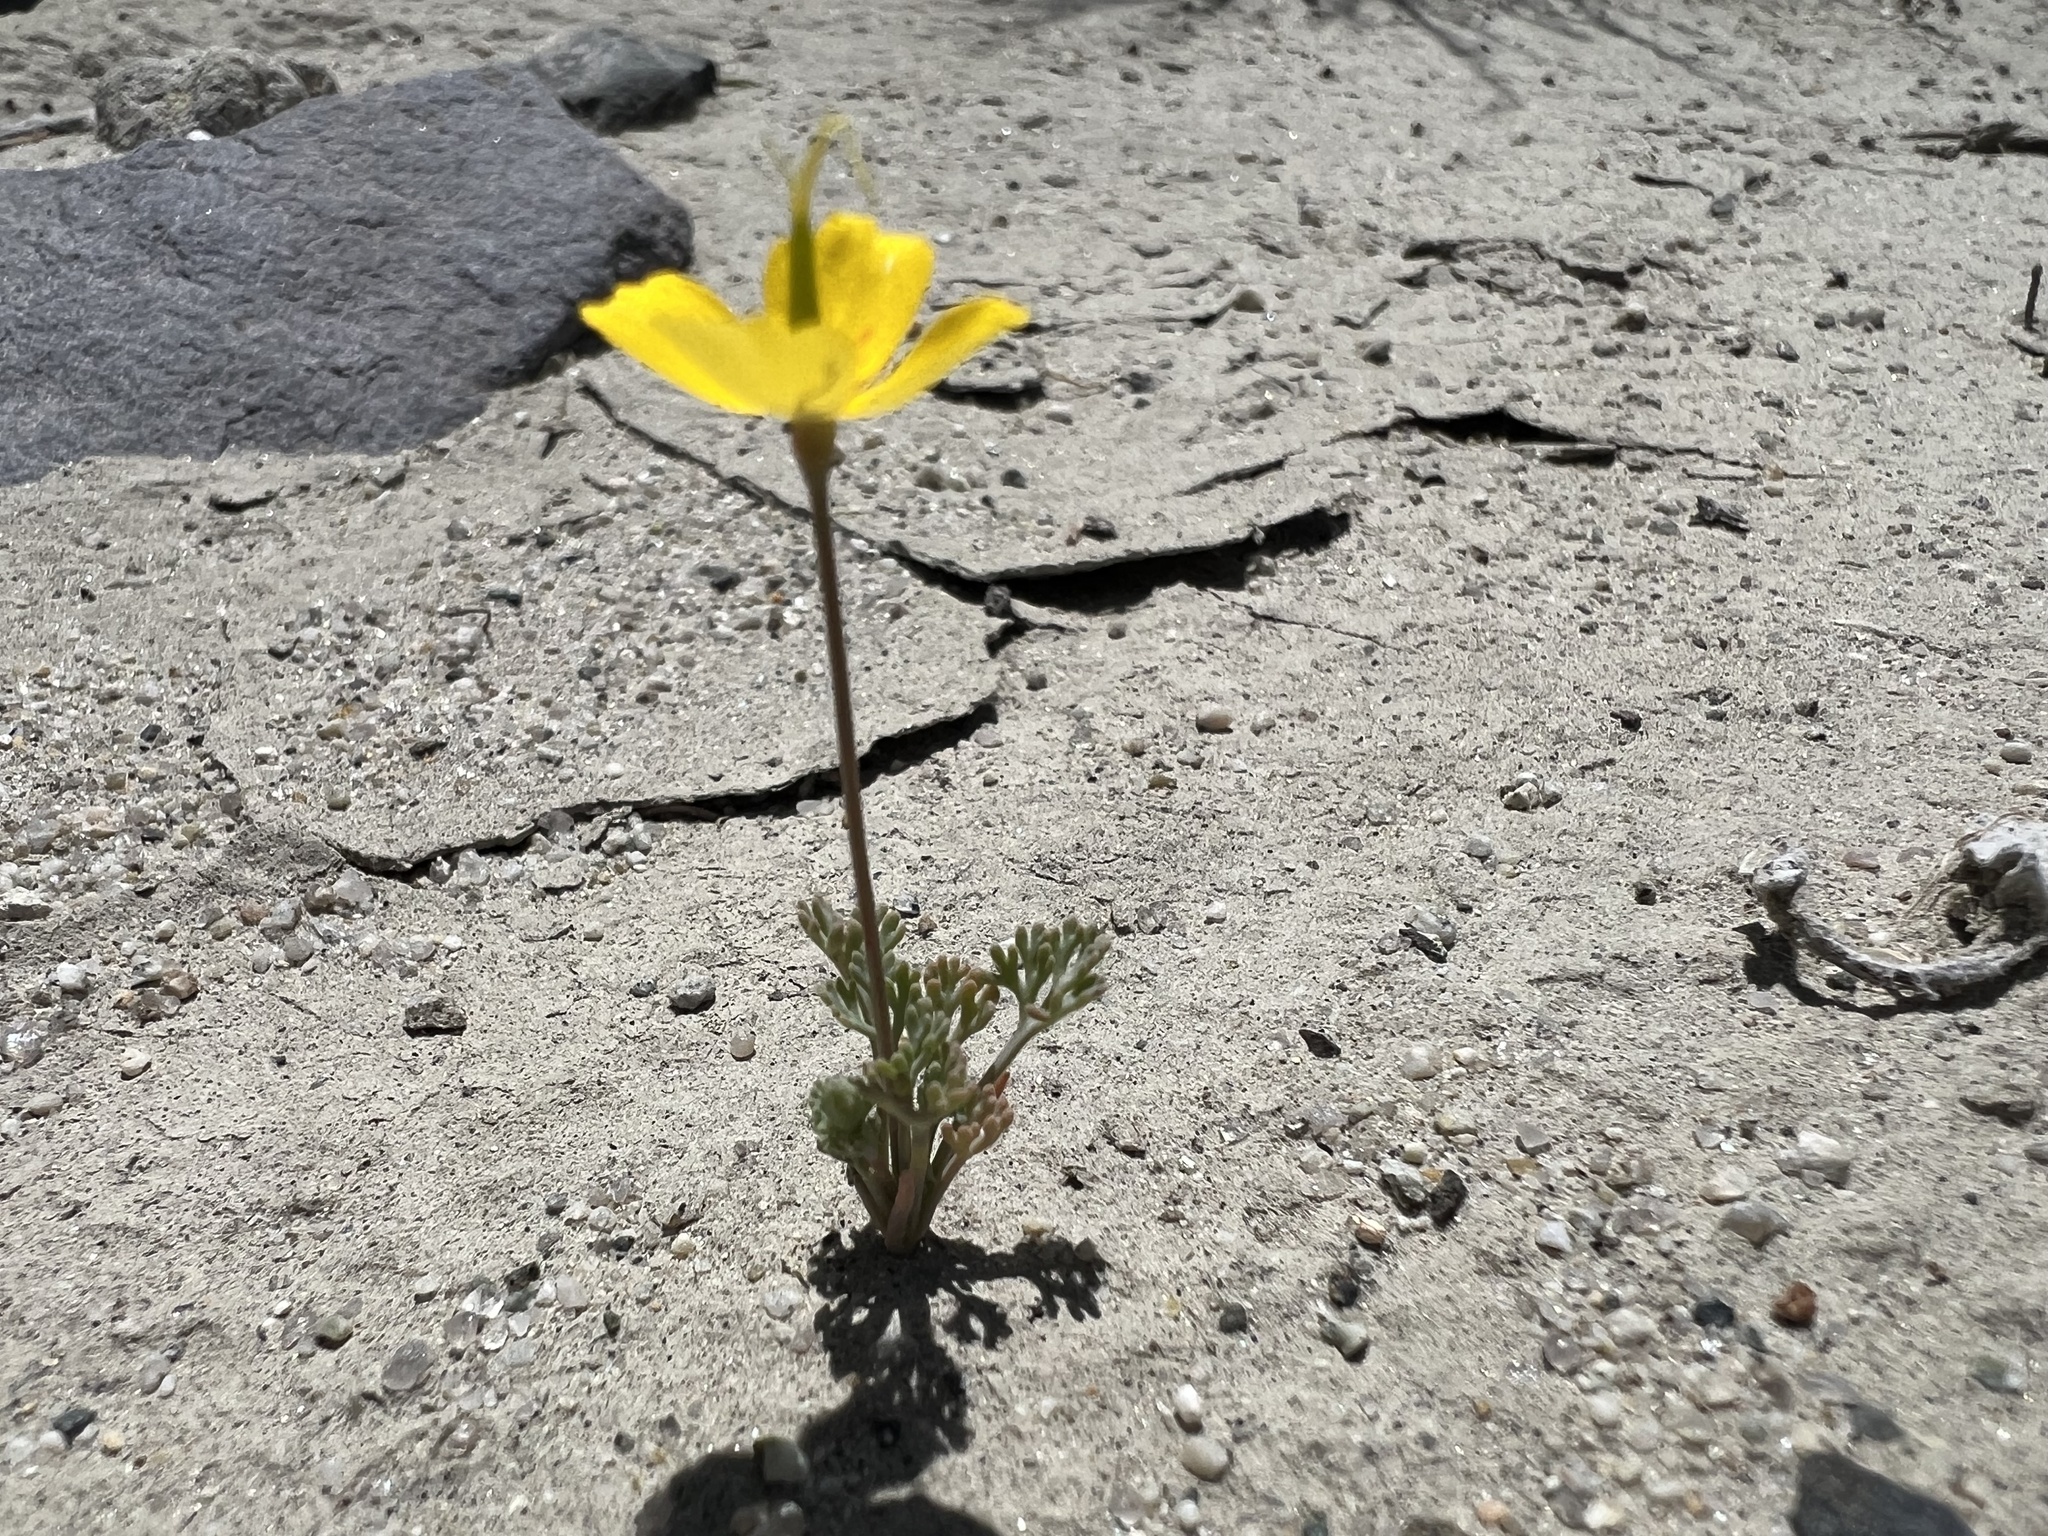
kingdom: Plantae
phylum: Tracheophyta
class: Magnoliopsida
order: Ranunculales
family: Papaveraceae
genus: Eschscholzia
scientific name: Eschscholzia minutiflora
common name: Small-flower california-poppy
